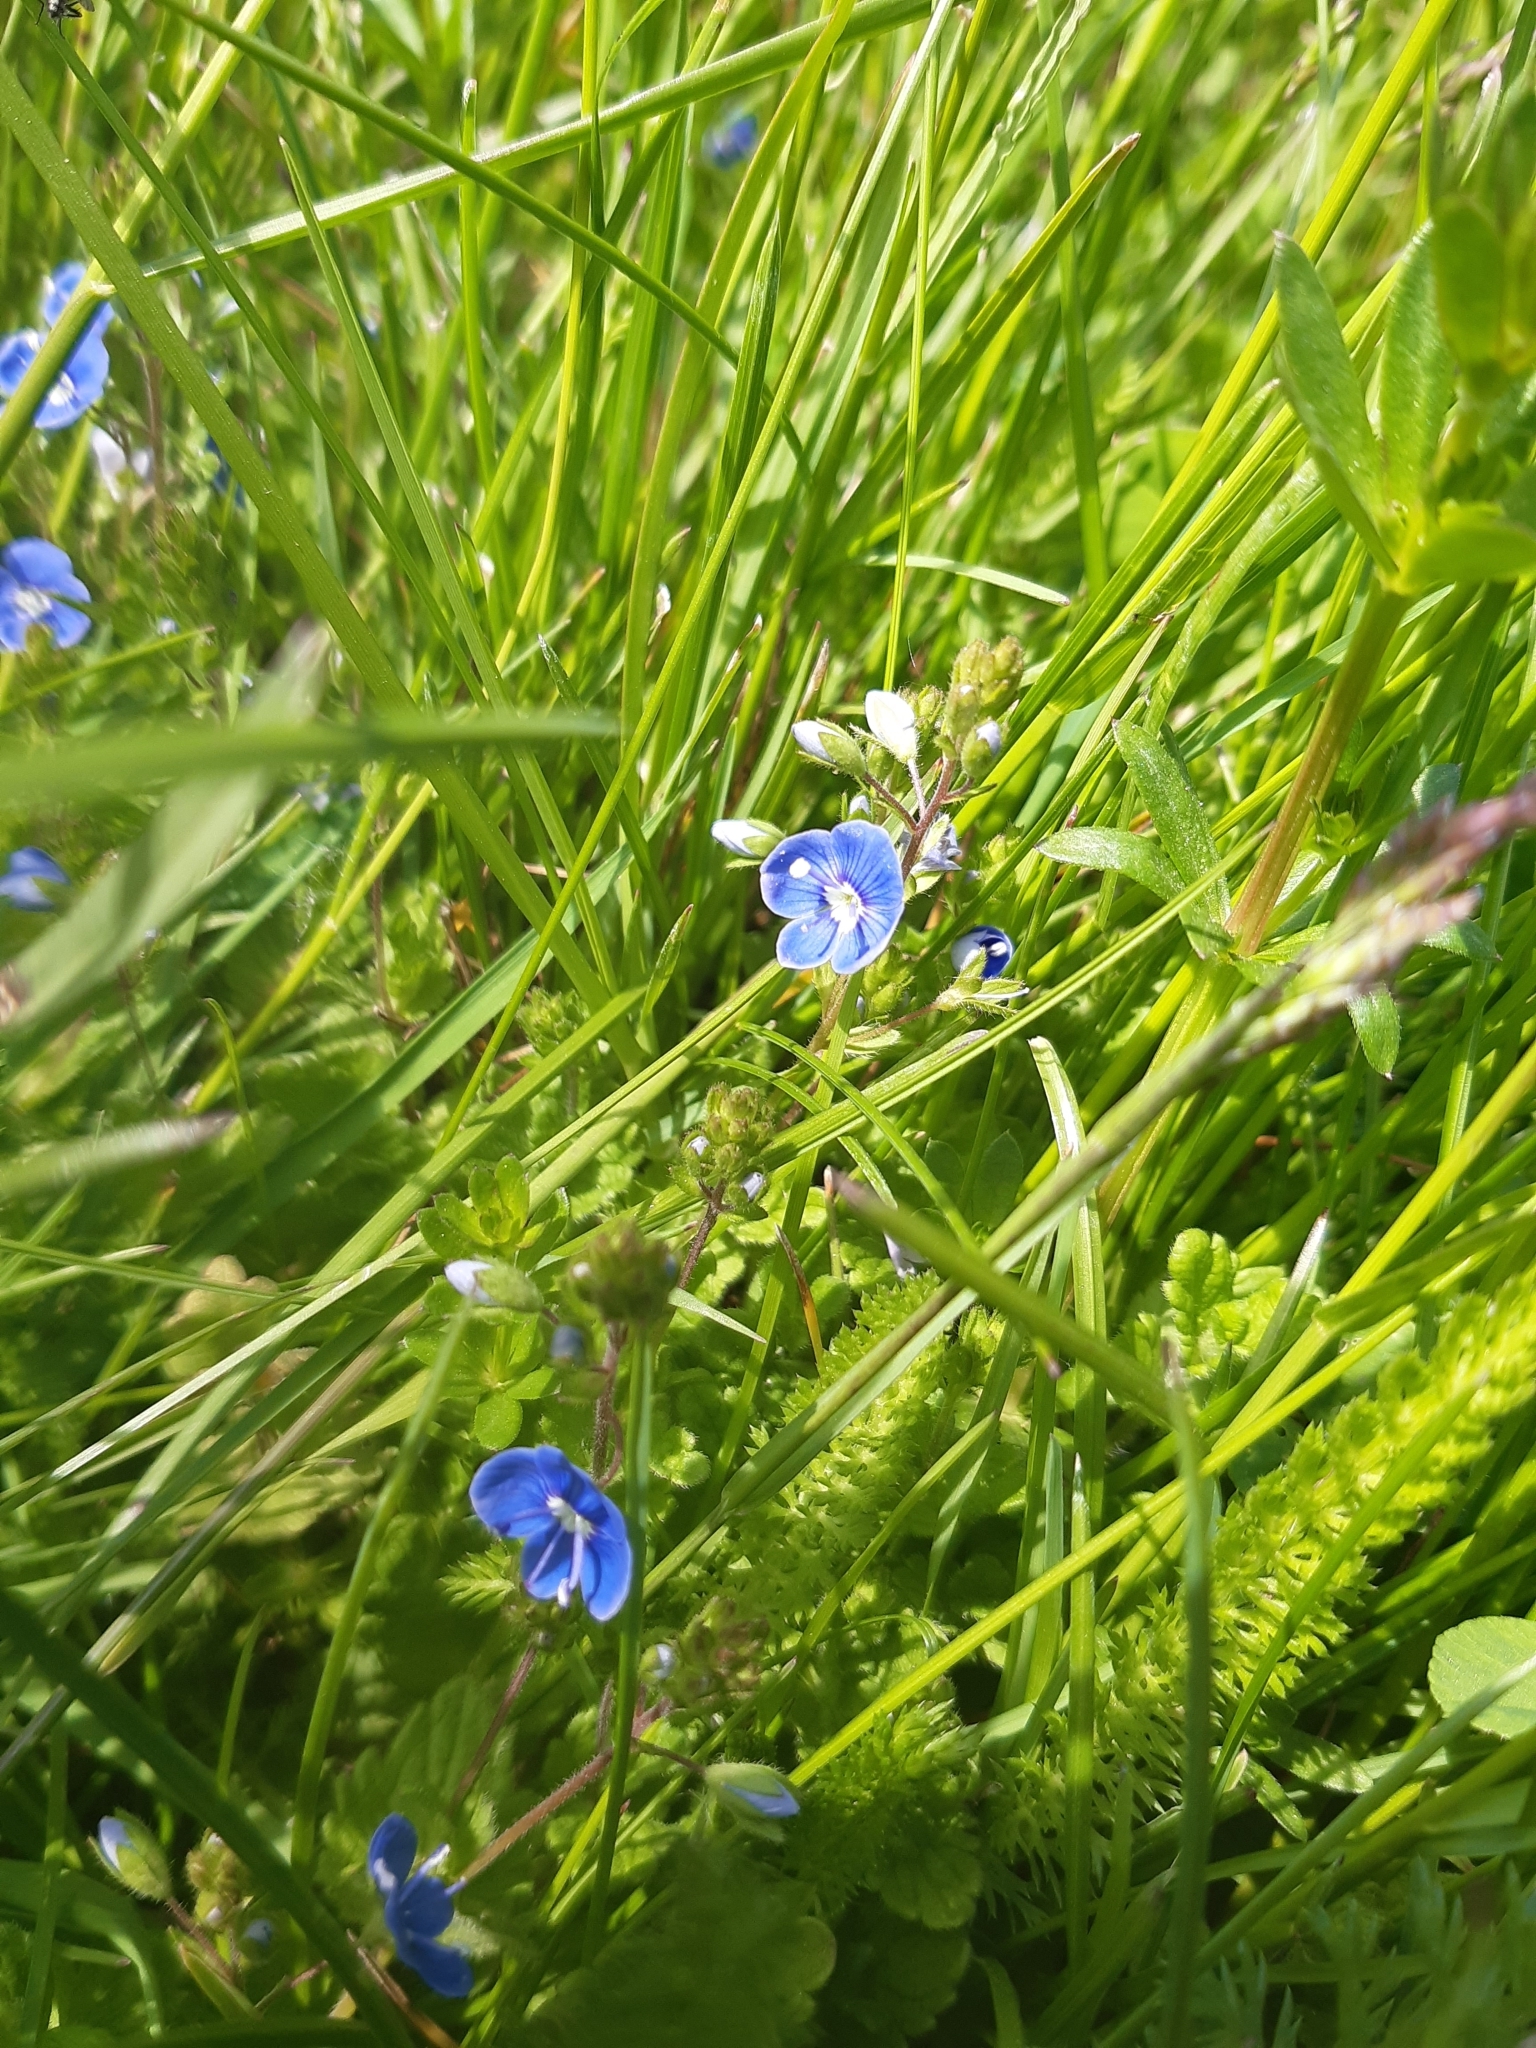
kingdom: Plantae
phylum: Tracheophyta
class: Magnoliopsida
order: Lamiales
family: Plantaginaceae
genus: Veronica
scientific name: Veronica chamaedrys
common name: Germander speedwell
